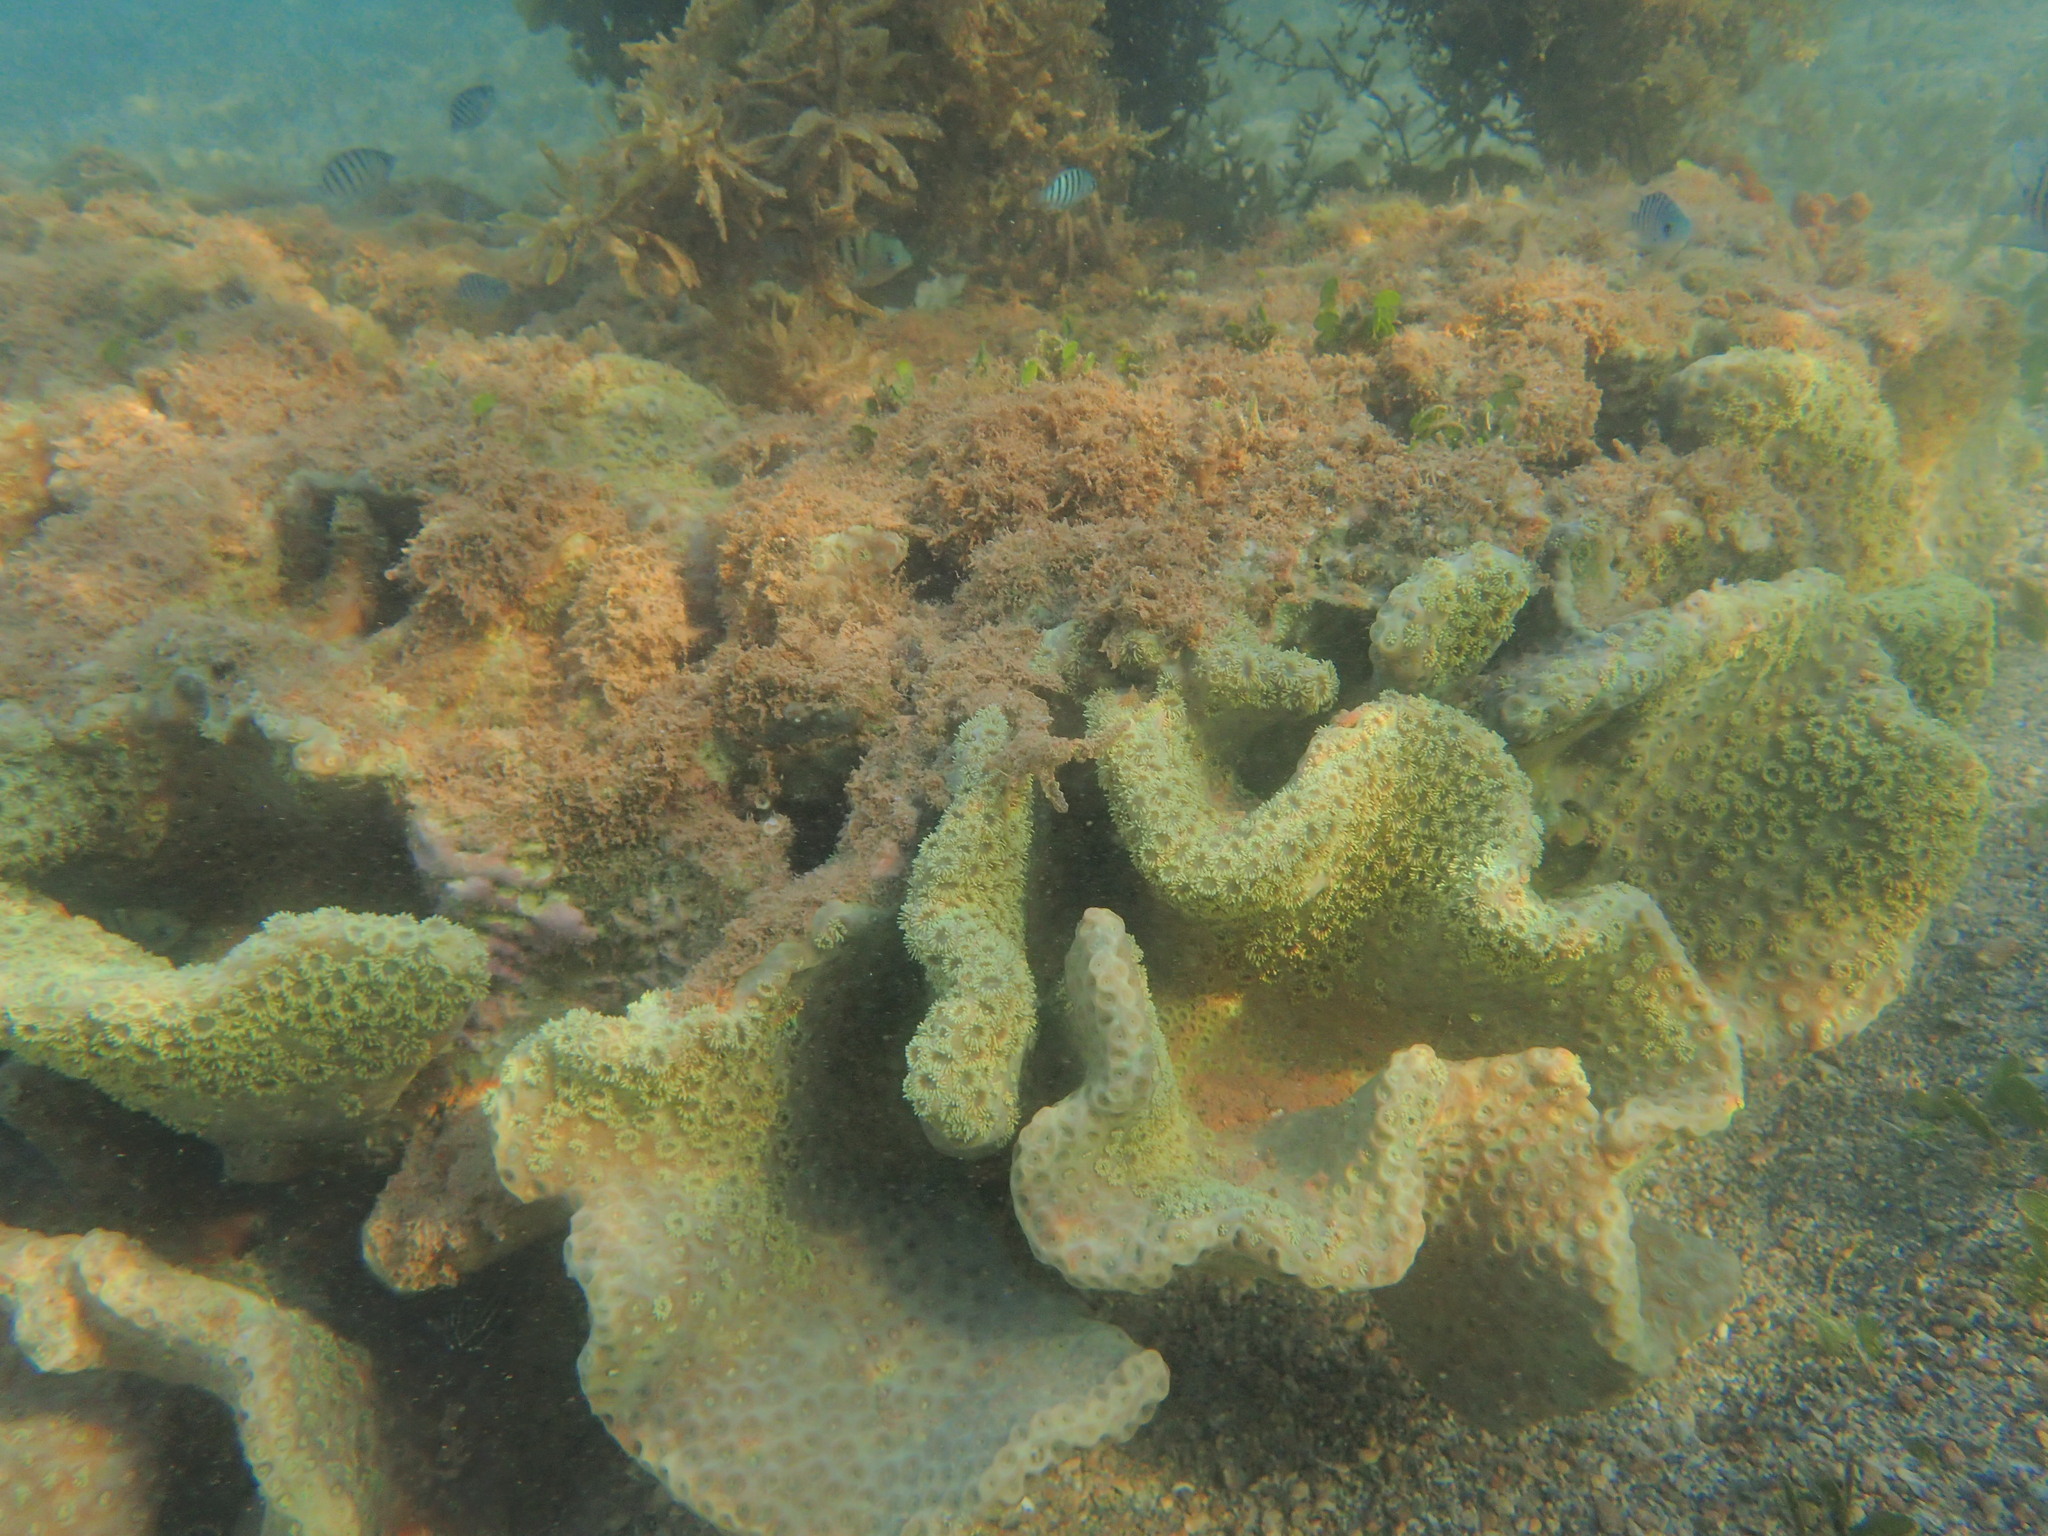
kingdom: Animalia
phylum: Cnidaria
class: Anthozoa
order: Scleractinia
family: Dendrophylliidae
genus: Duncanopsammia
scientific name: Duncanopsammia peltata
